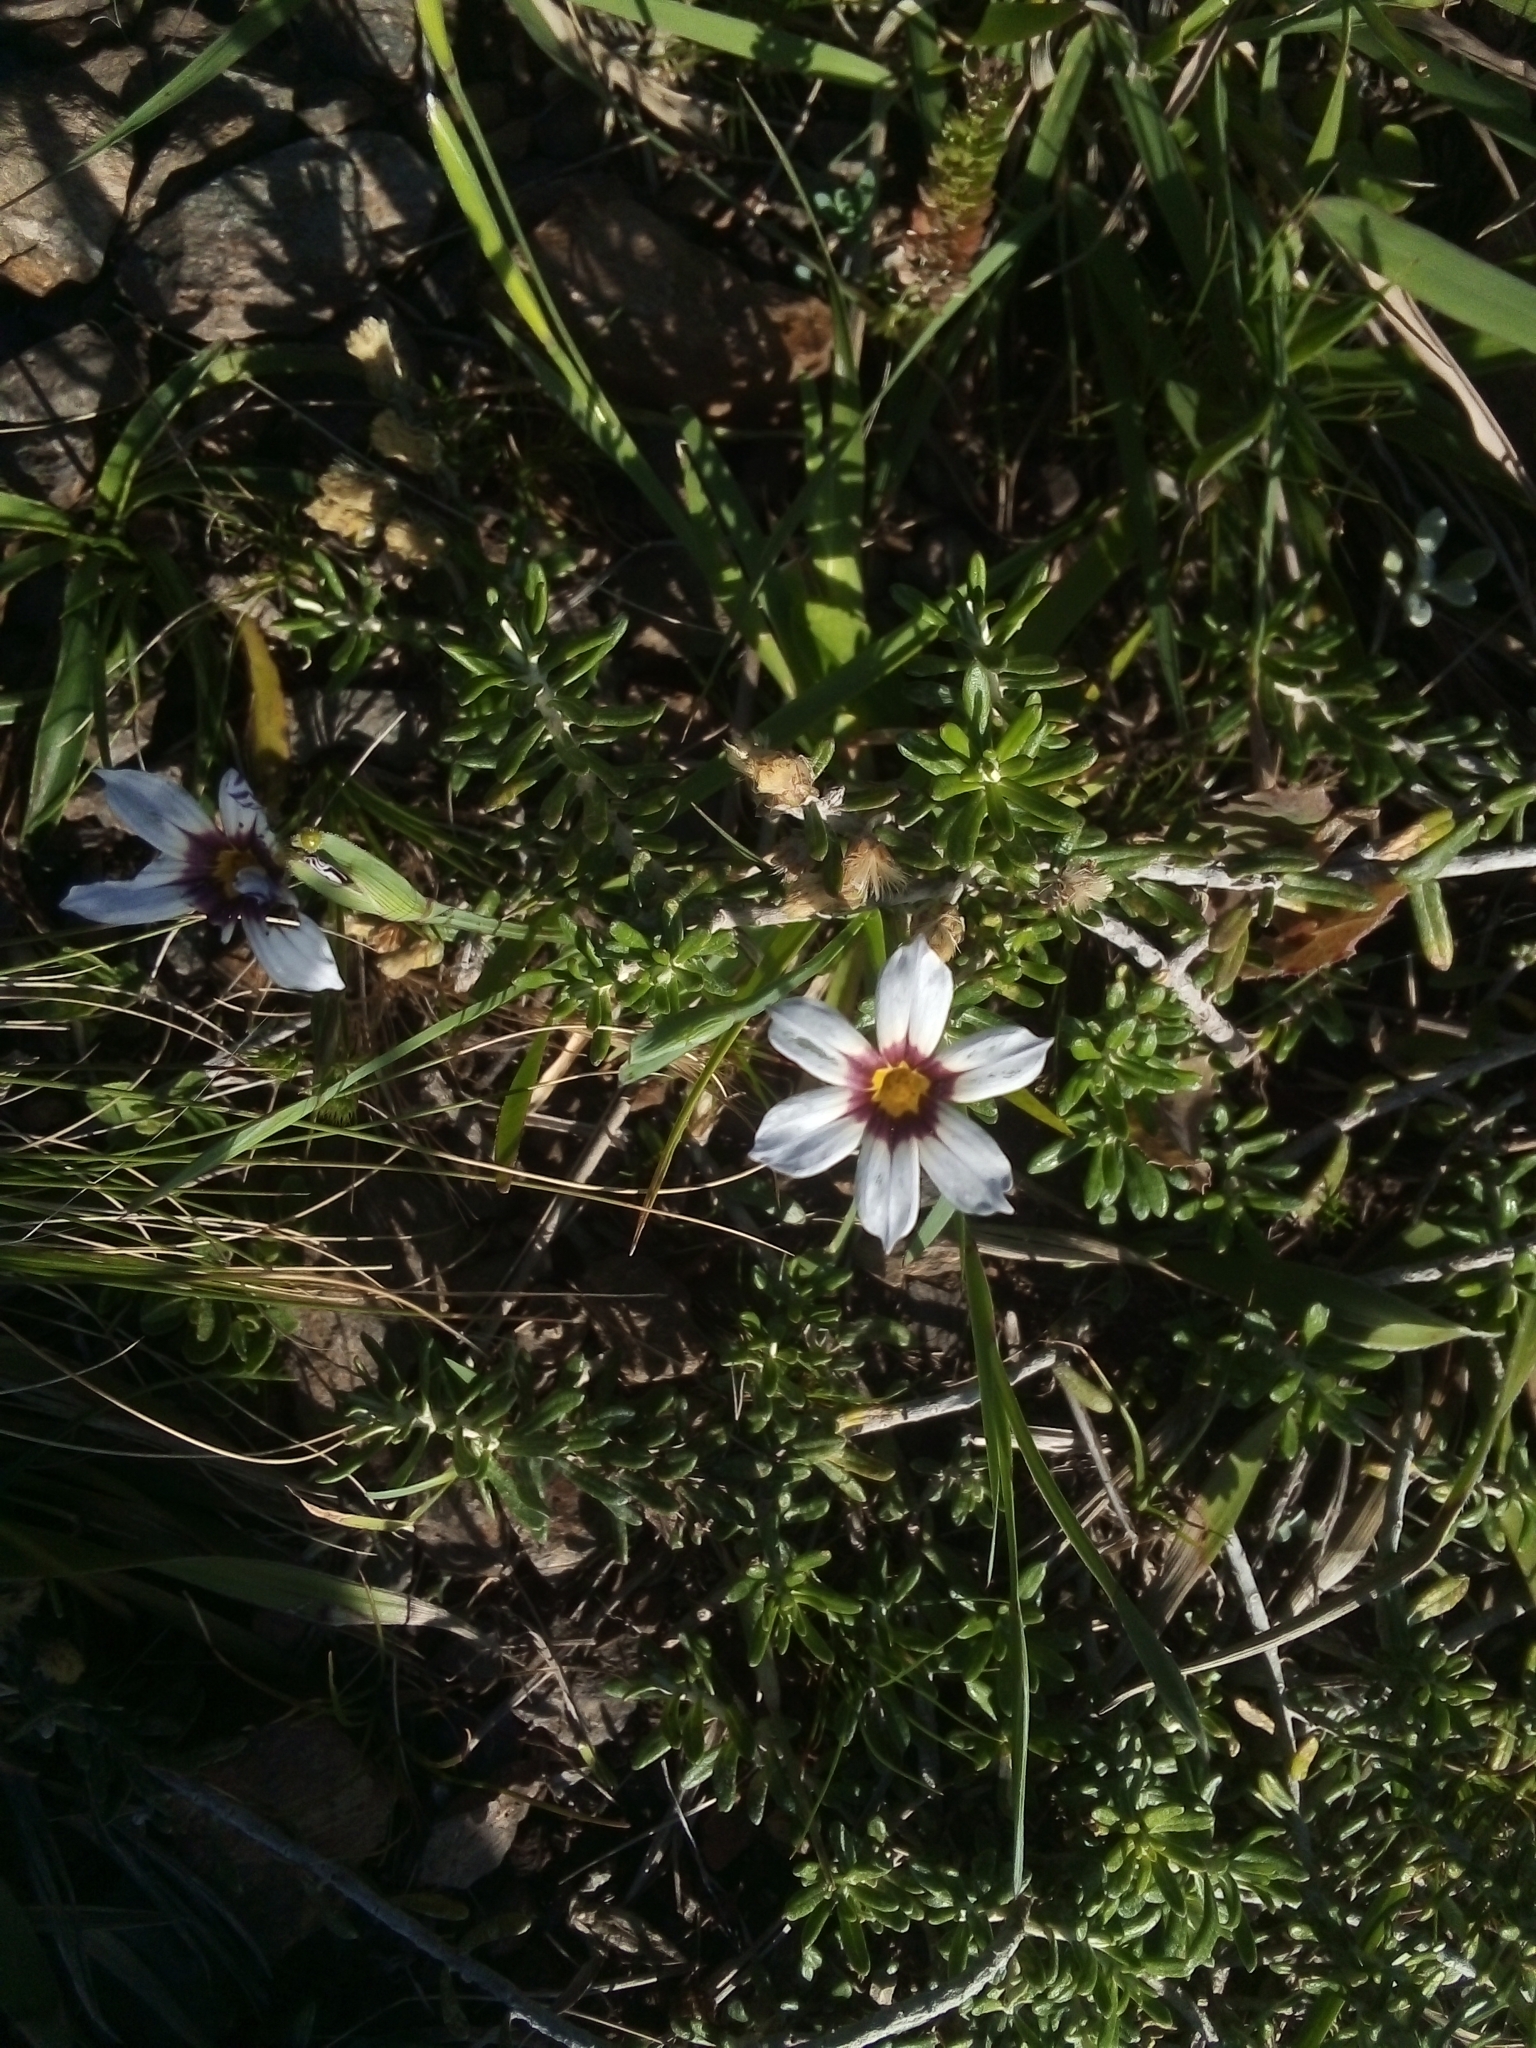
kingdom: Plantae
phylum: Tracheophyta
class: Liliopsida
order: Asparagales
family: Iridaceae
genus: Sisyrinchium
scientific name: Sisyrinchium micranthum
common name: Bermuda pigroot
